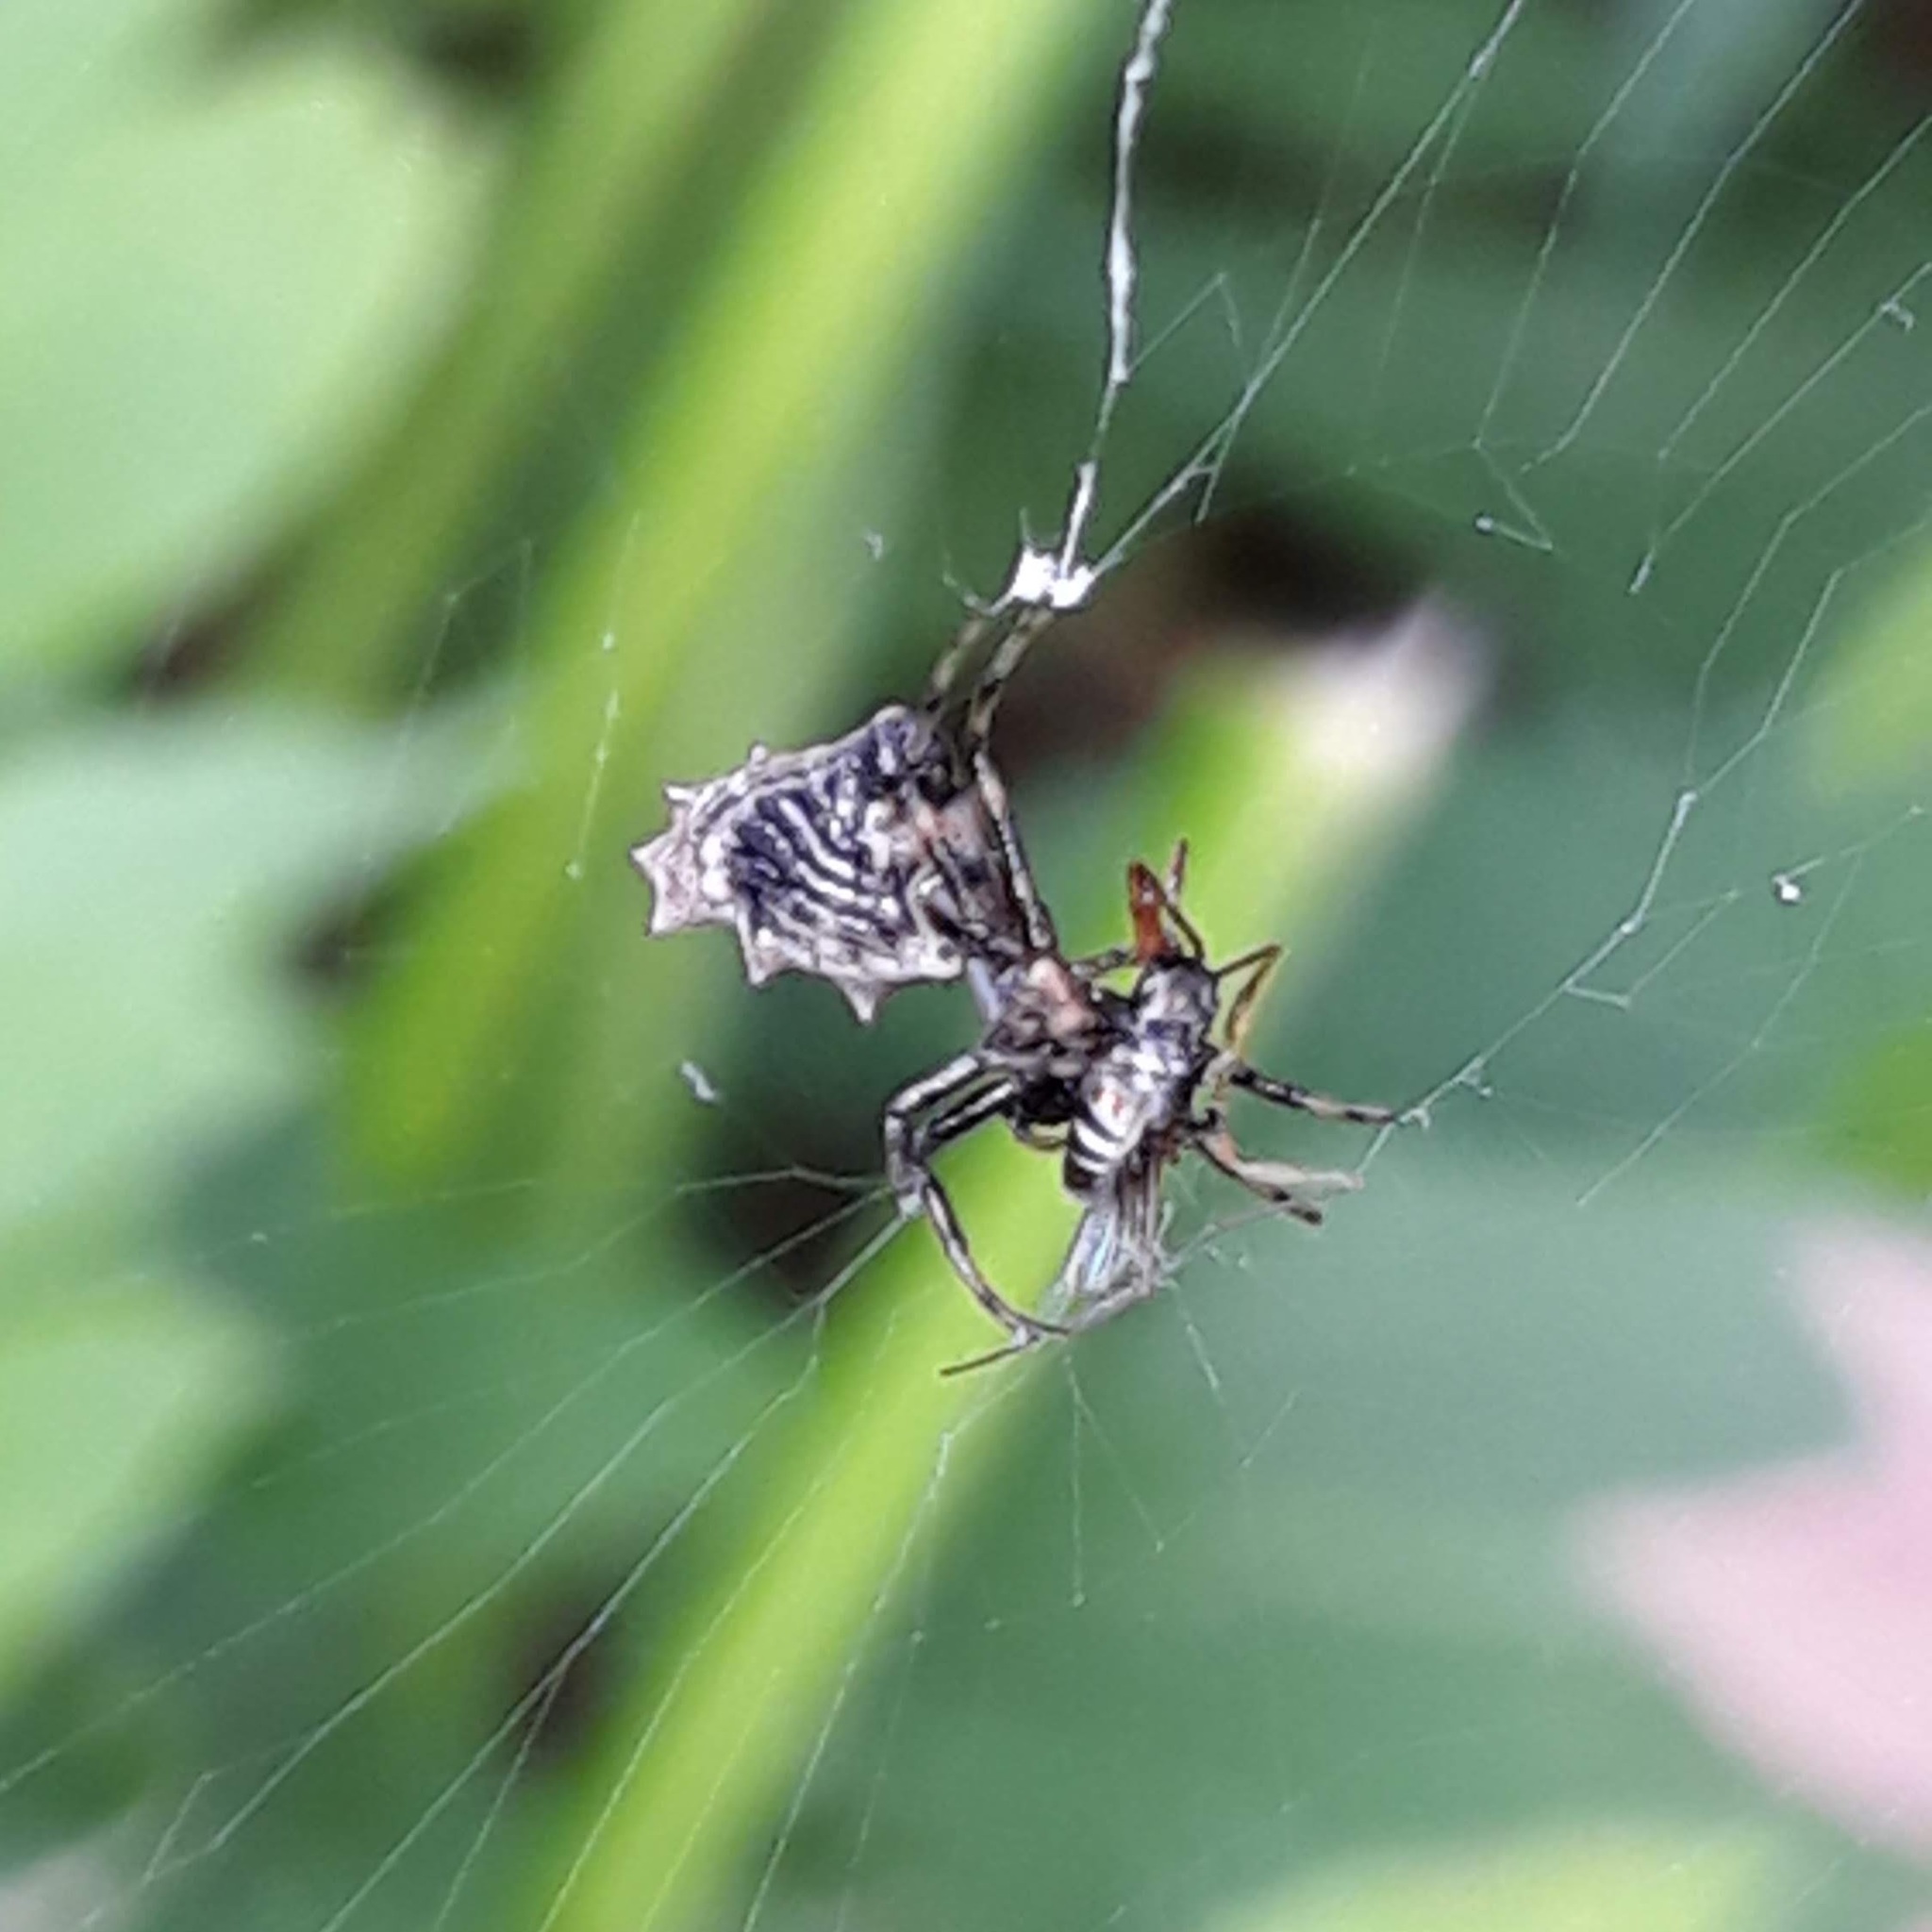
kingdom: Animalia
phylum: Arthropoda
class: Arachnida
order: Araneae
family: Araneidae
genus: Micrathena
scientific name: Micrathena gracilis
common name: Orb weavers
